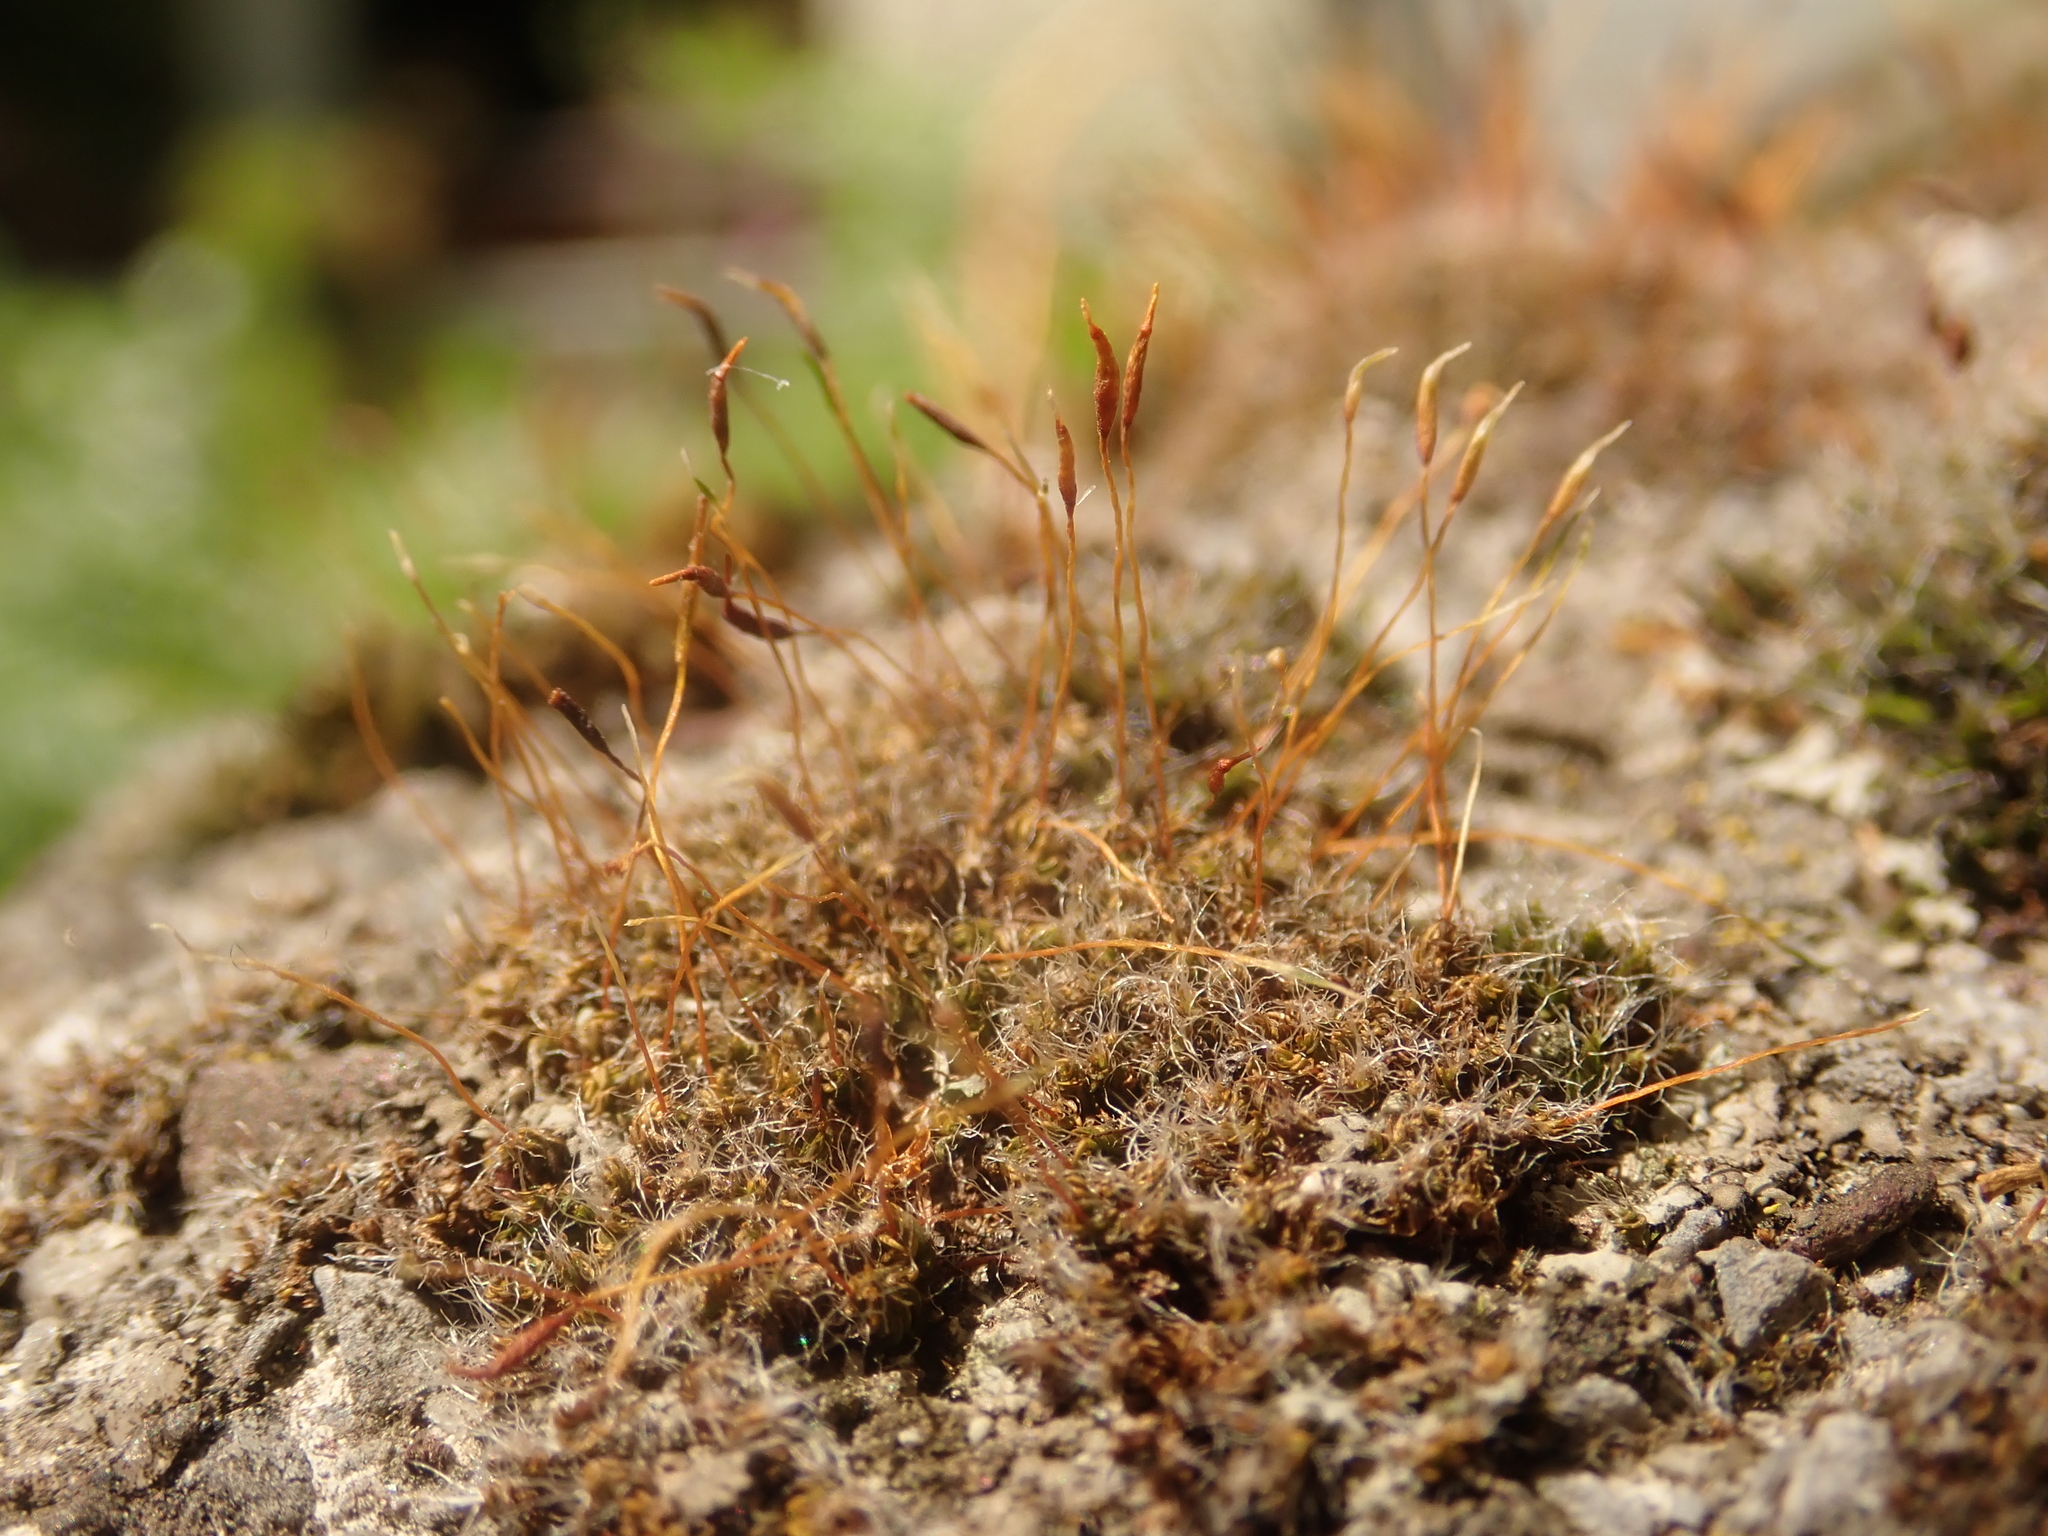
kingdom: Plantae
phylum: Bryophyta
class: Bryopsida
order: Pottiales
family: Pottiaceae
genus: Tortula
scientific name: Tortula muralis
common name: Wall screw-moss
